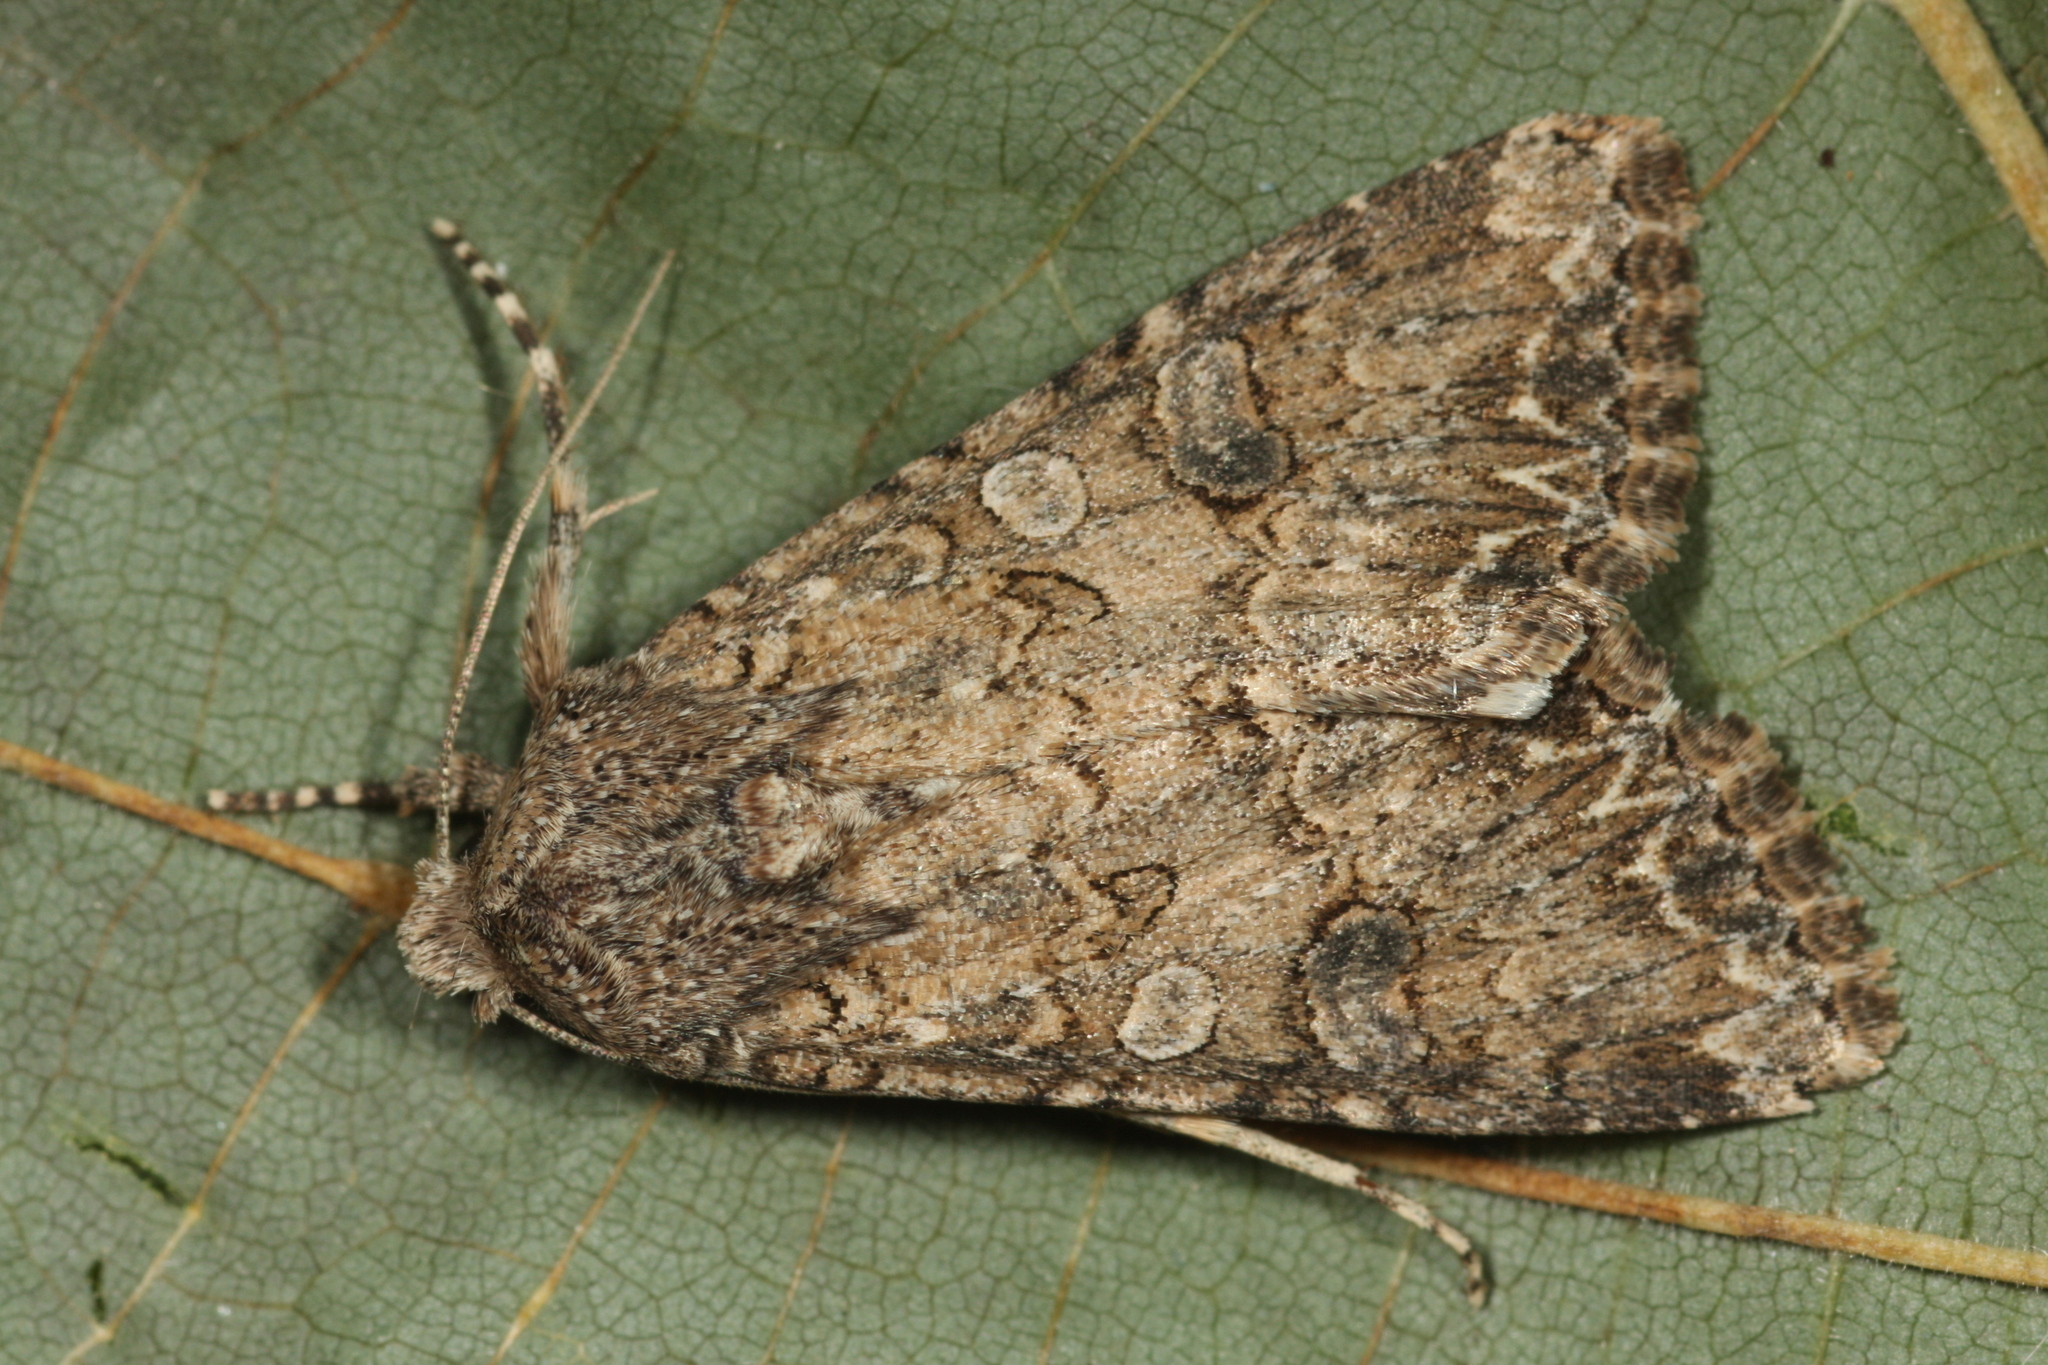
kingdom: Animalia
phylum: Arthropoda
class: Insecta
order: Lepidoptera
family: Noctuidae
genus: Anarta
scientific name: Anarta trifolii
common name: Clover cutworm moth
